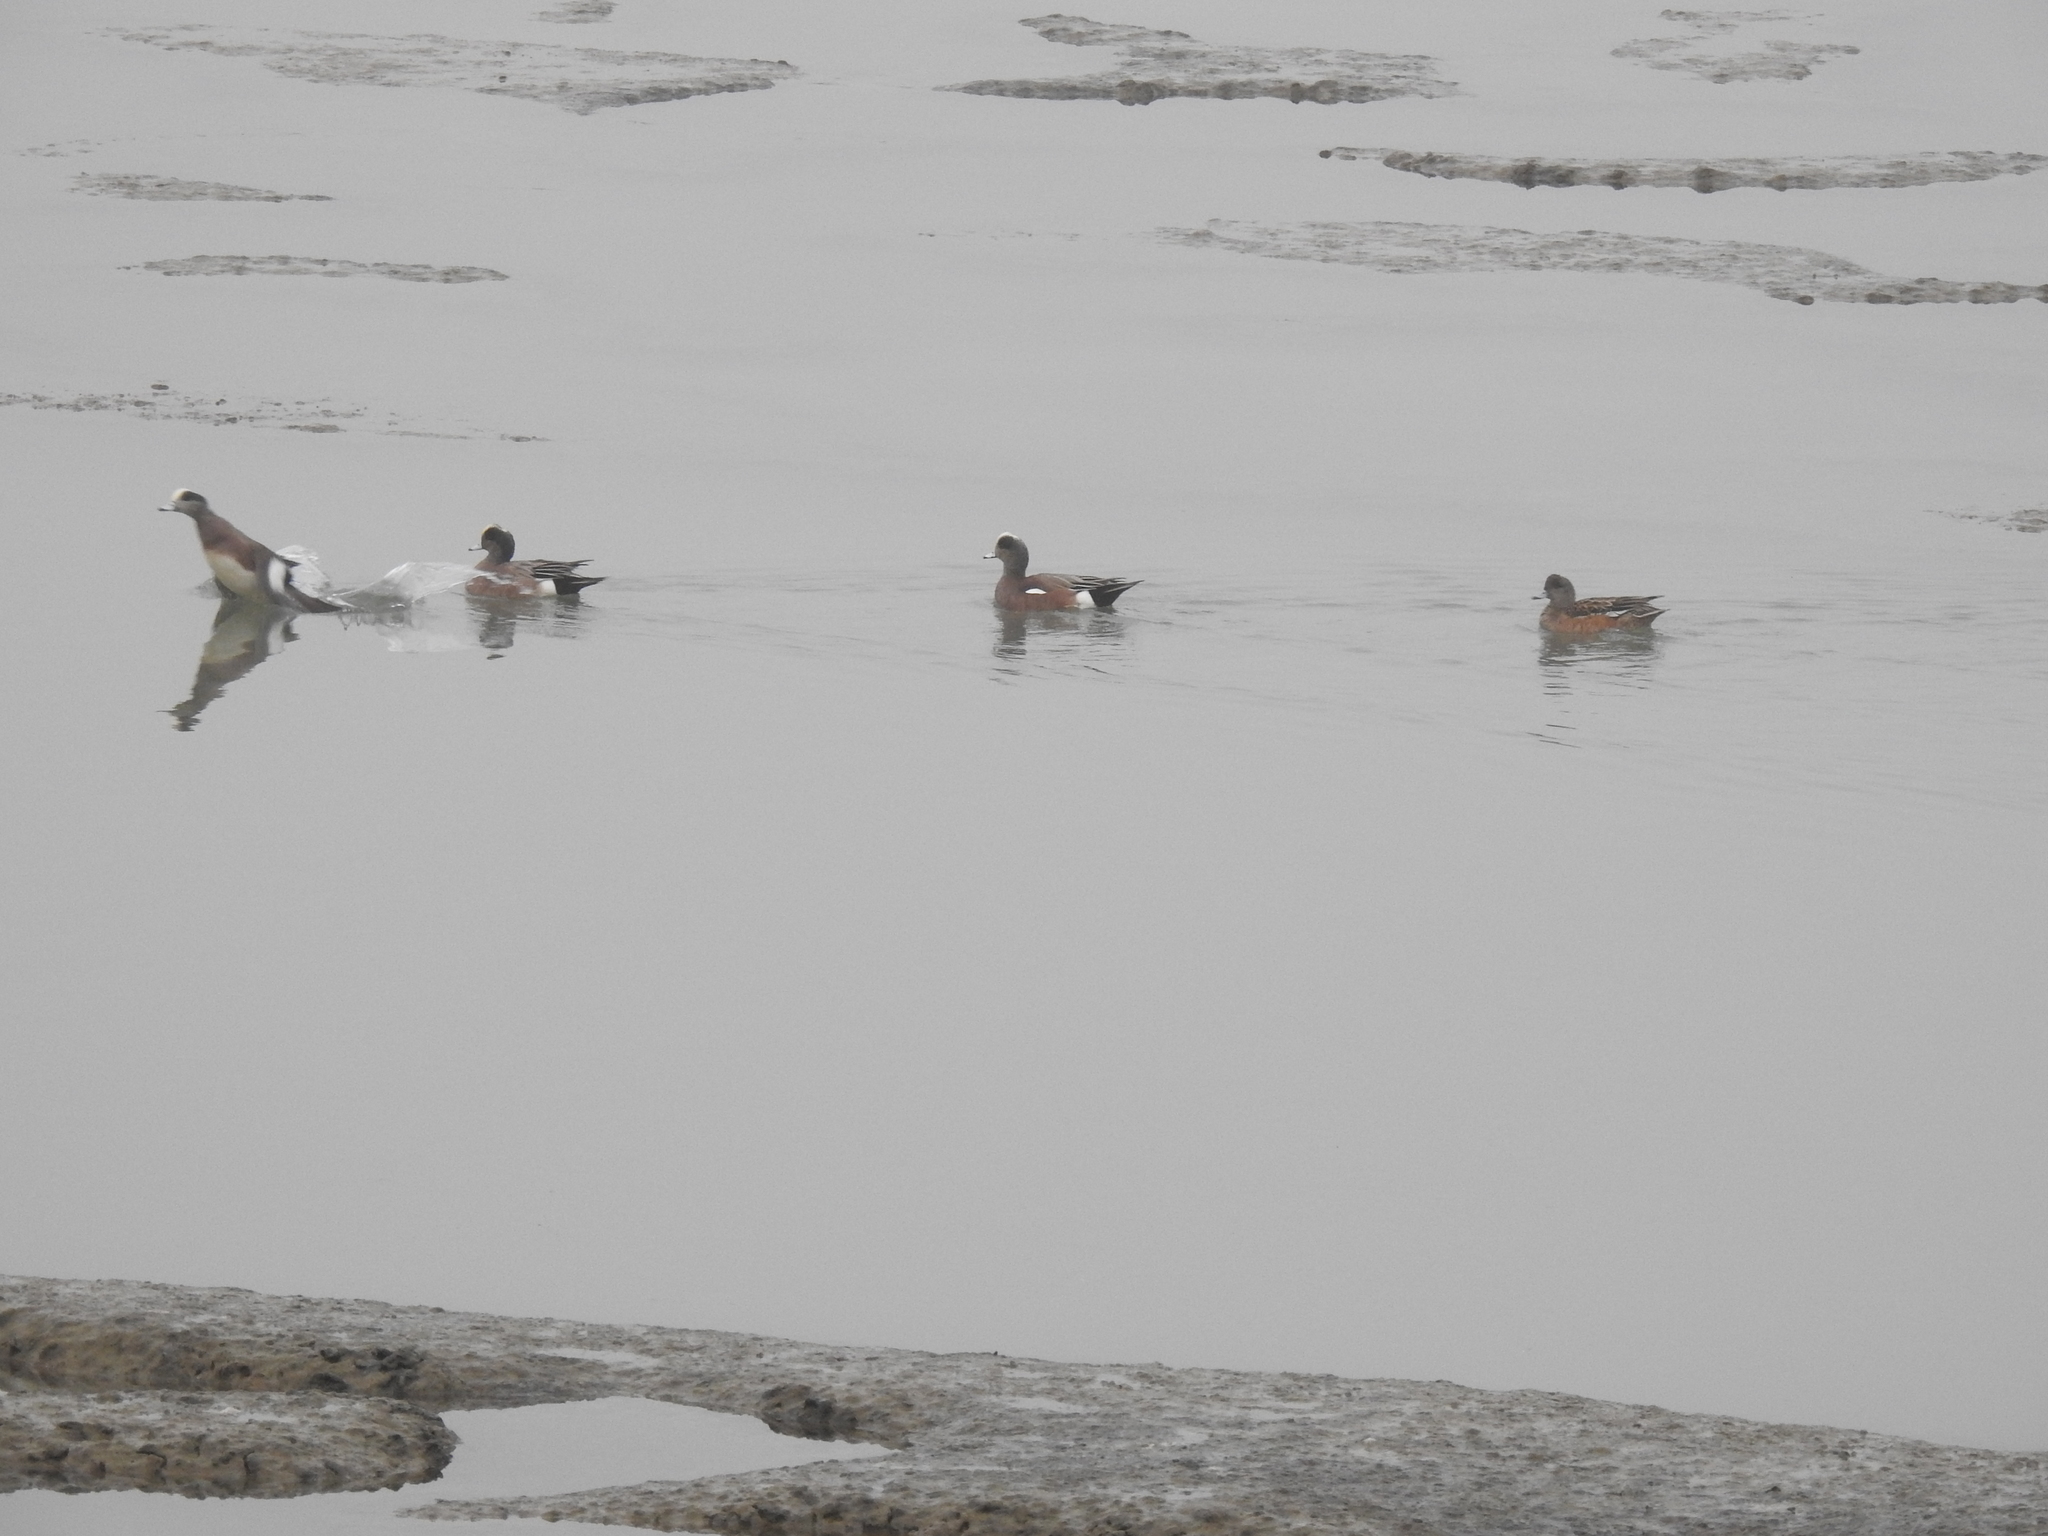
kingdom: Animalia
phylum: Chordata
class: Aves
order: Anseriformes
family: Anatidae
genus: Mareca
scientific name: Mareca americana
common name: American wigeon
